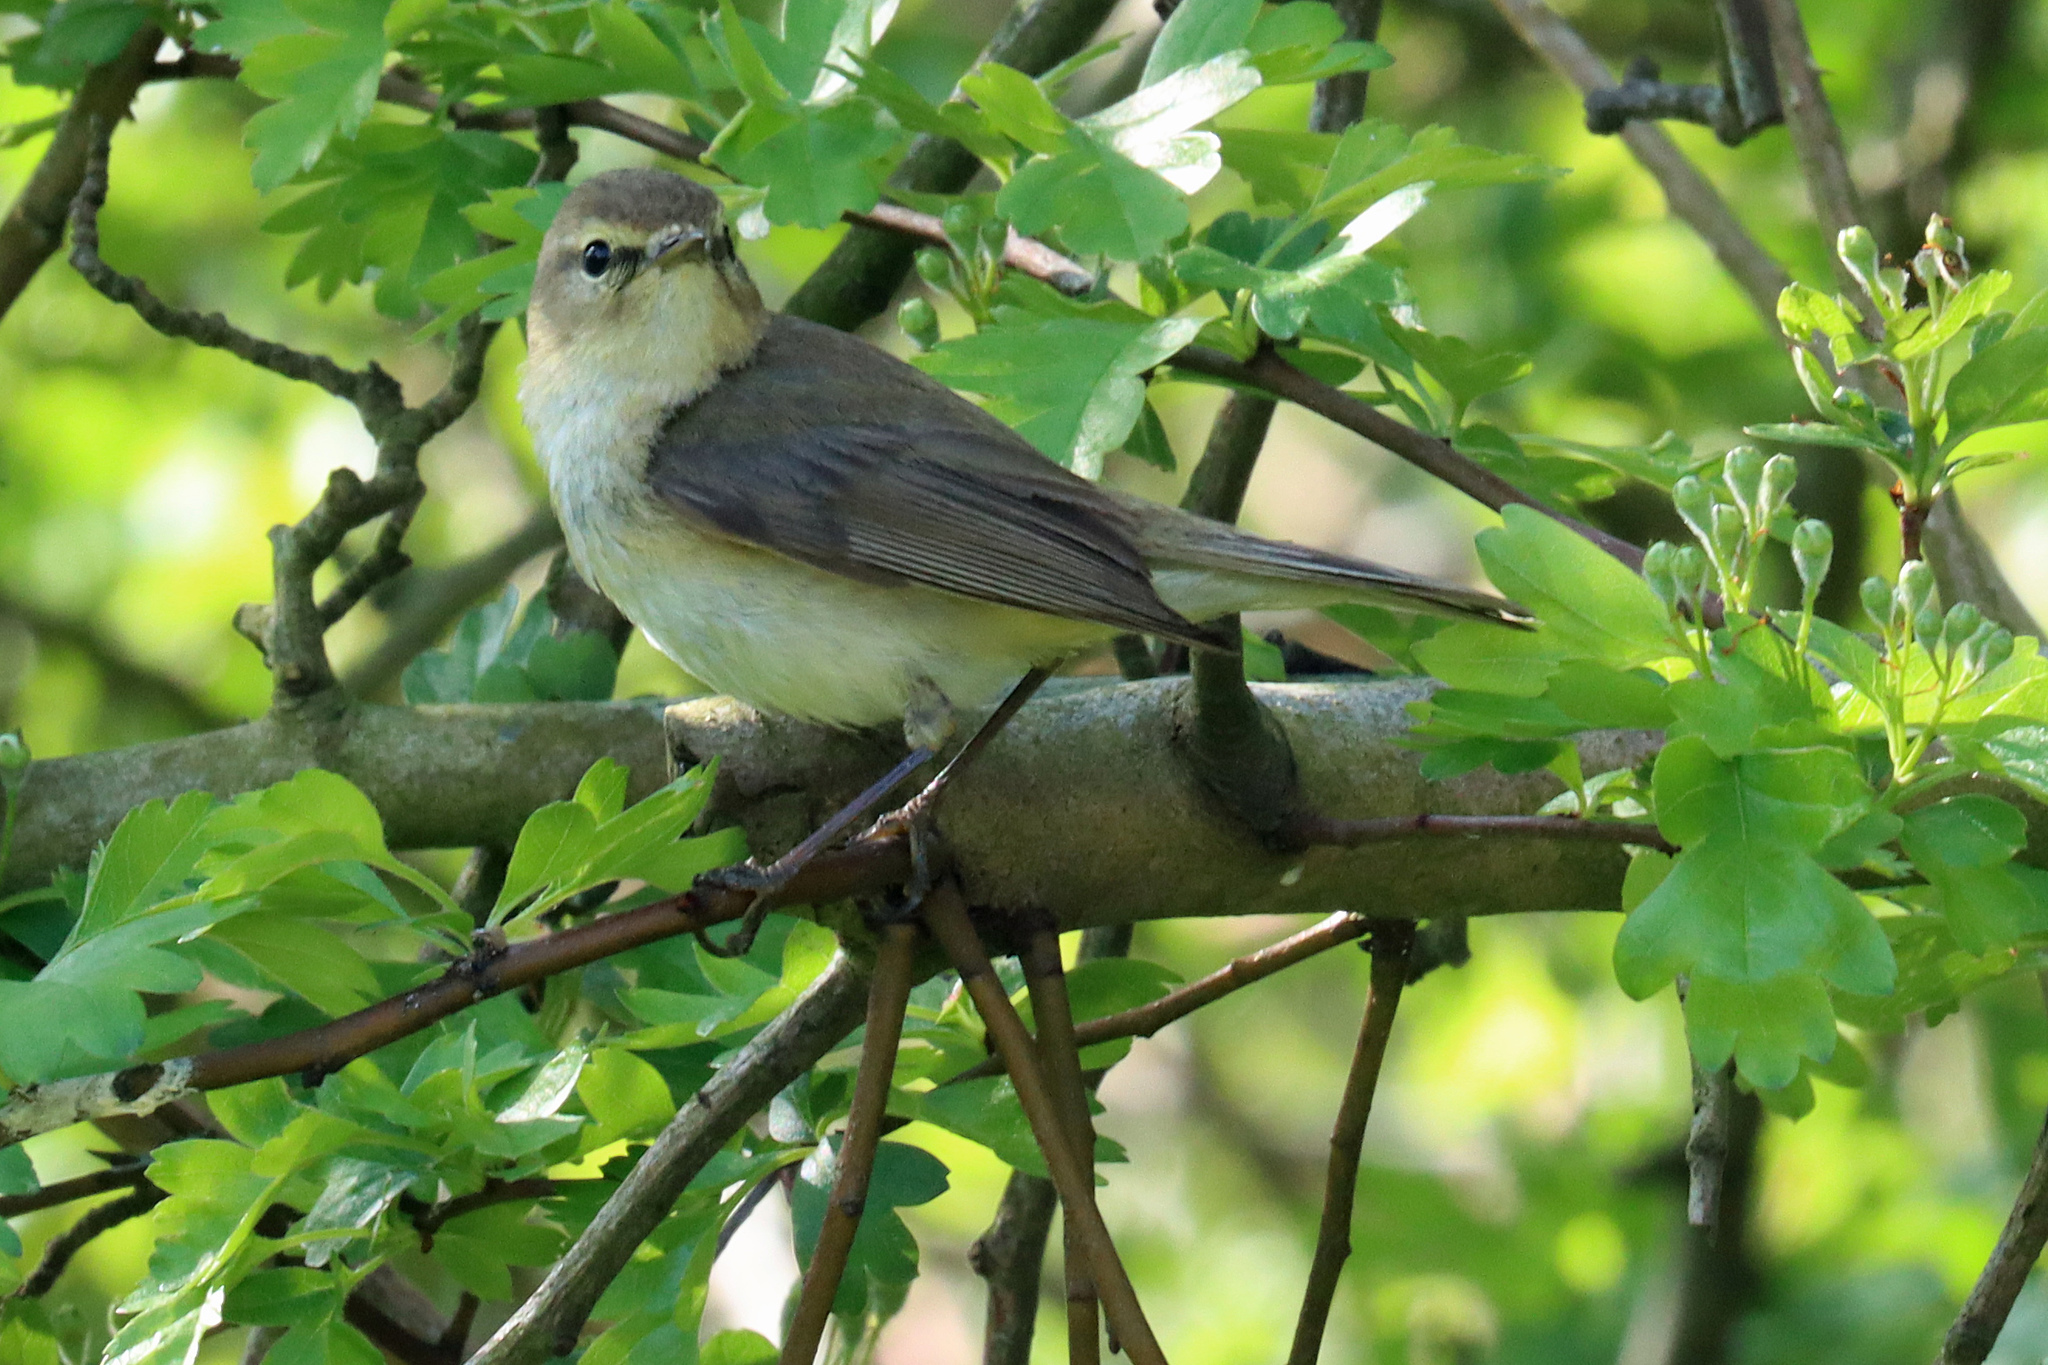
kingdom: Animalia
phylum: Chordata
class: Aves
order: Passeriformes
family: Phylloscopidae
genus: Phylloscopus
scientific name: Phylloscopus collybita
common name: Common chiffchaff
